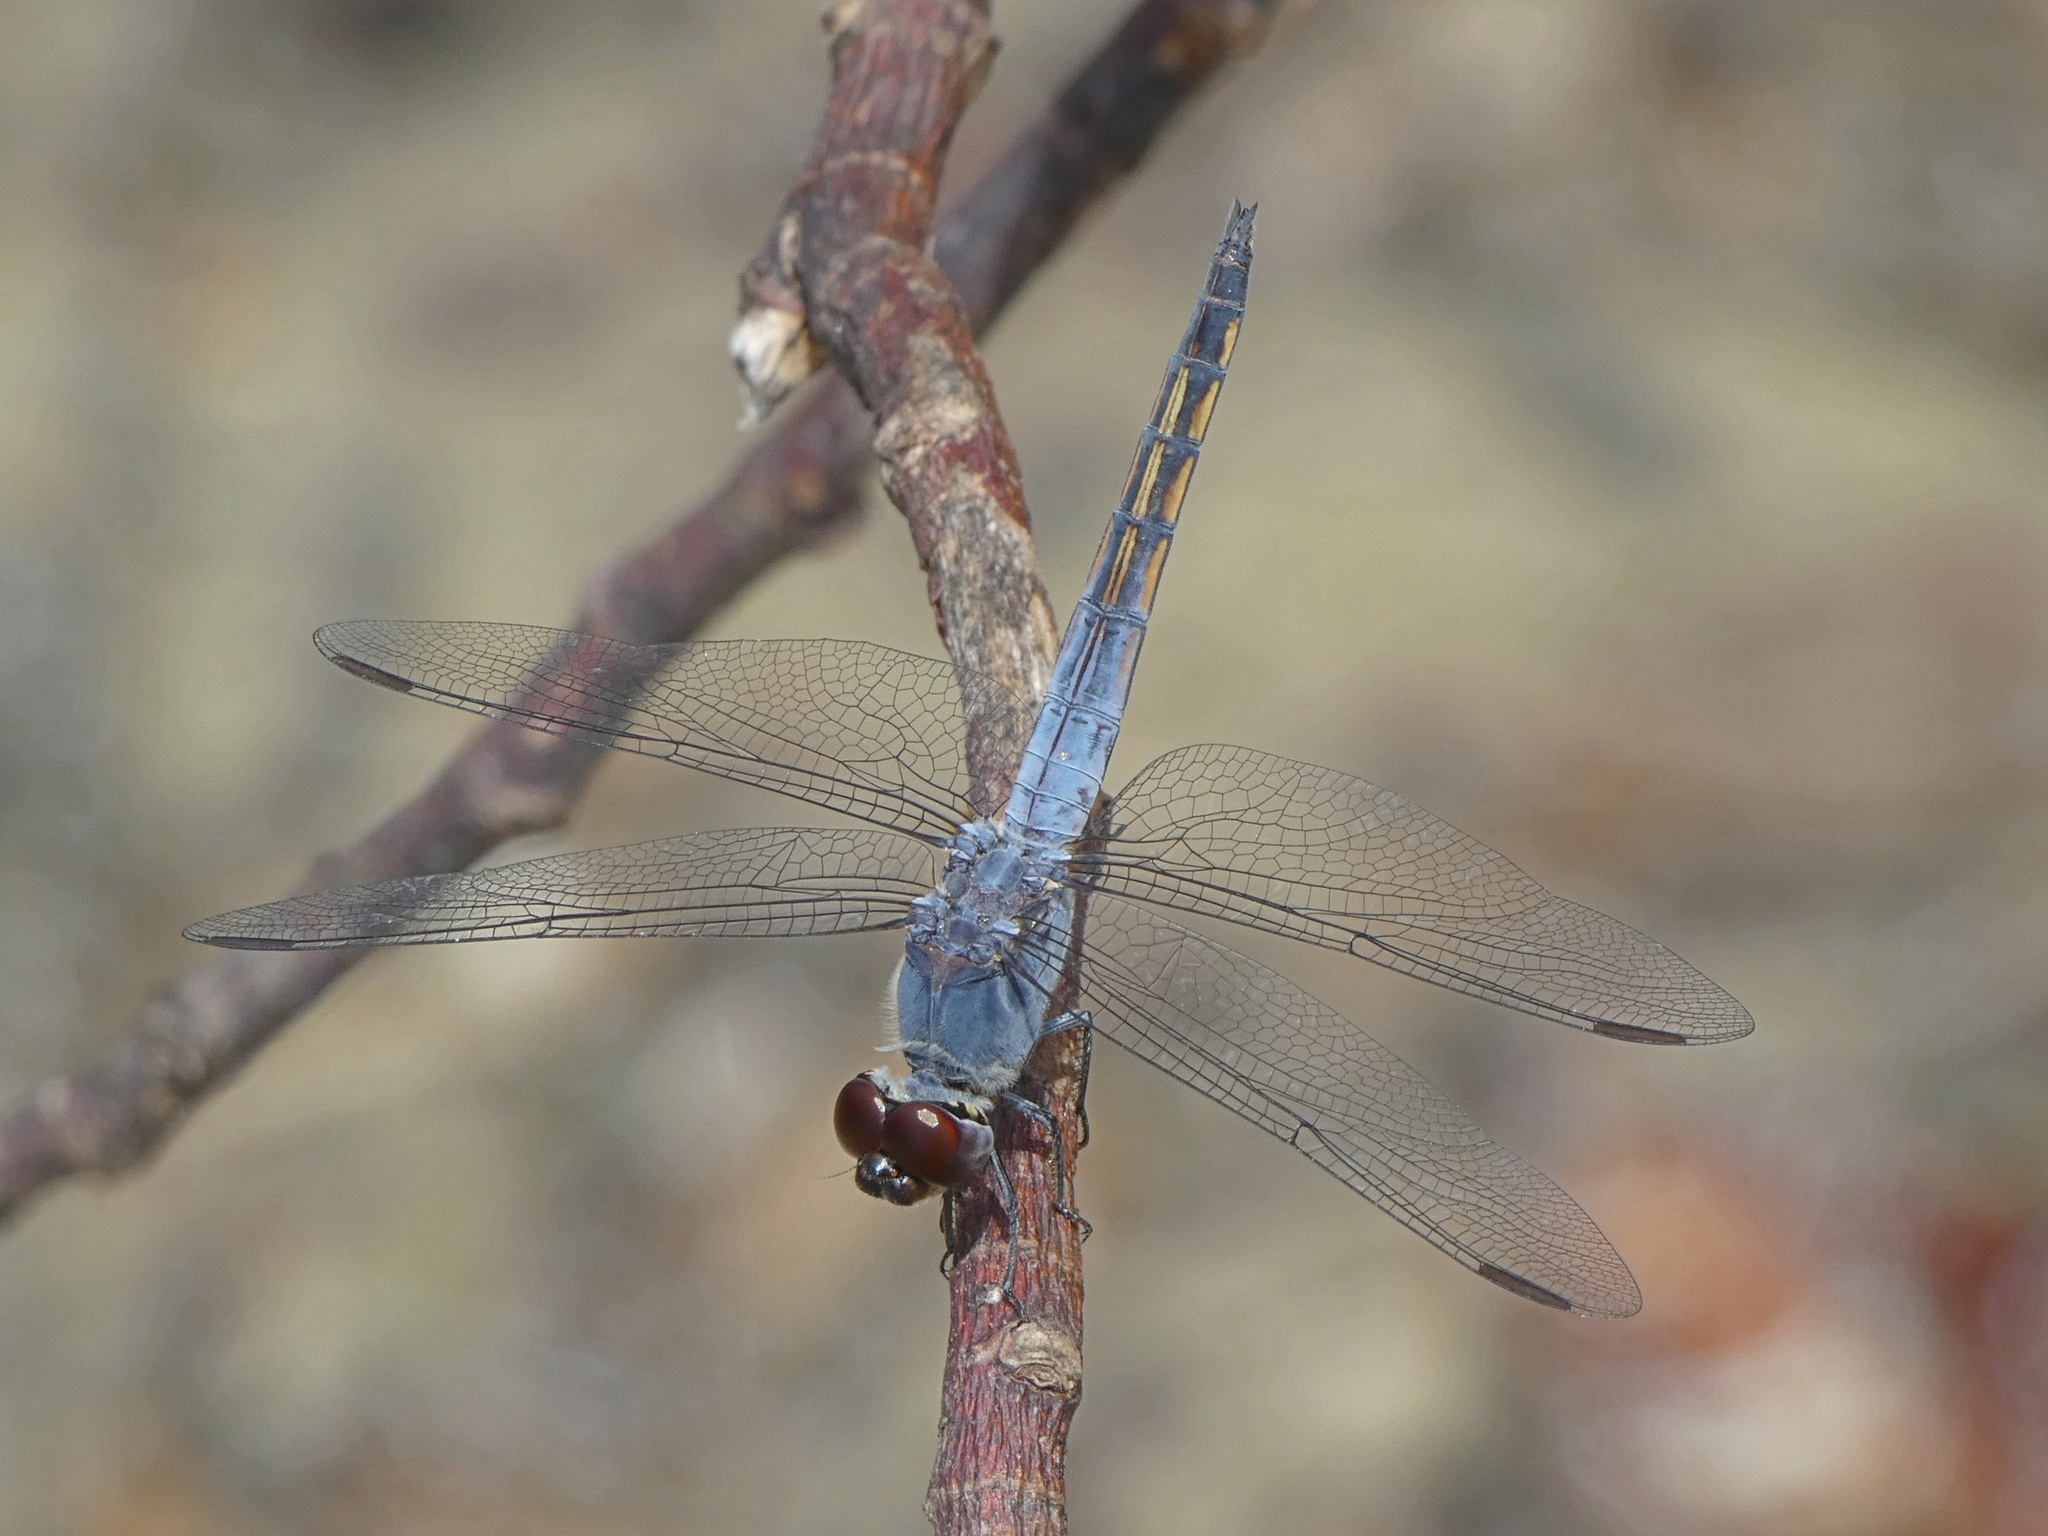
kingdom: Animalia
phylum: Arthropoda
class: Insecta
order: Odonata
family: Libellulidae
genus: Potamarcha
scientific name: Potamarcha congener
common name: Blue chaser
